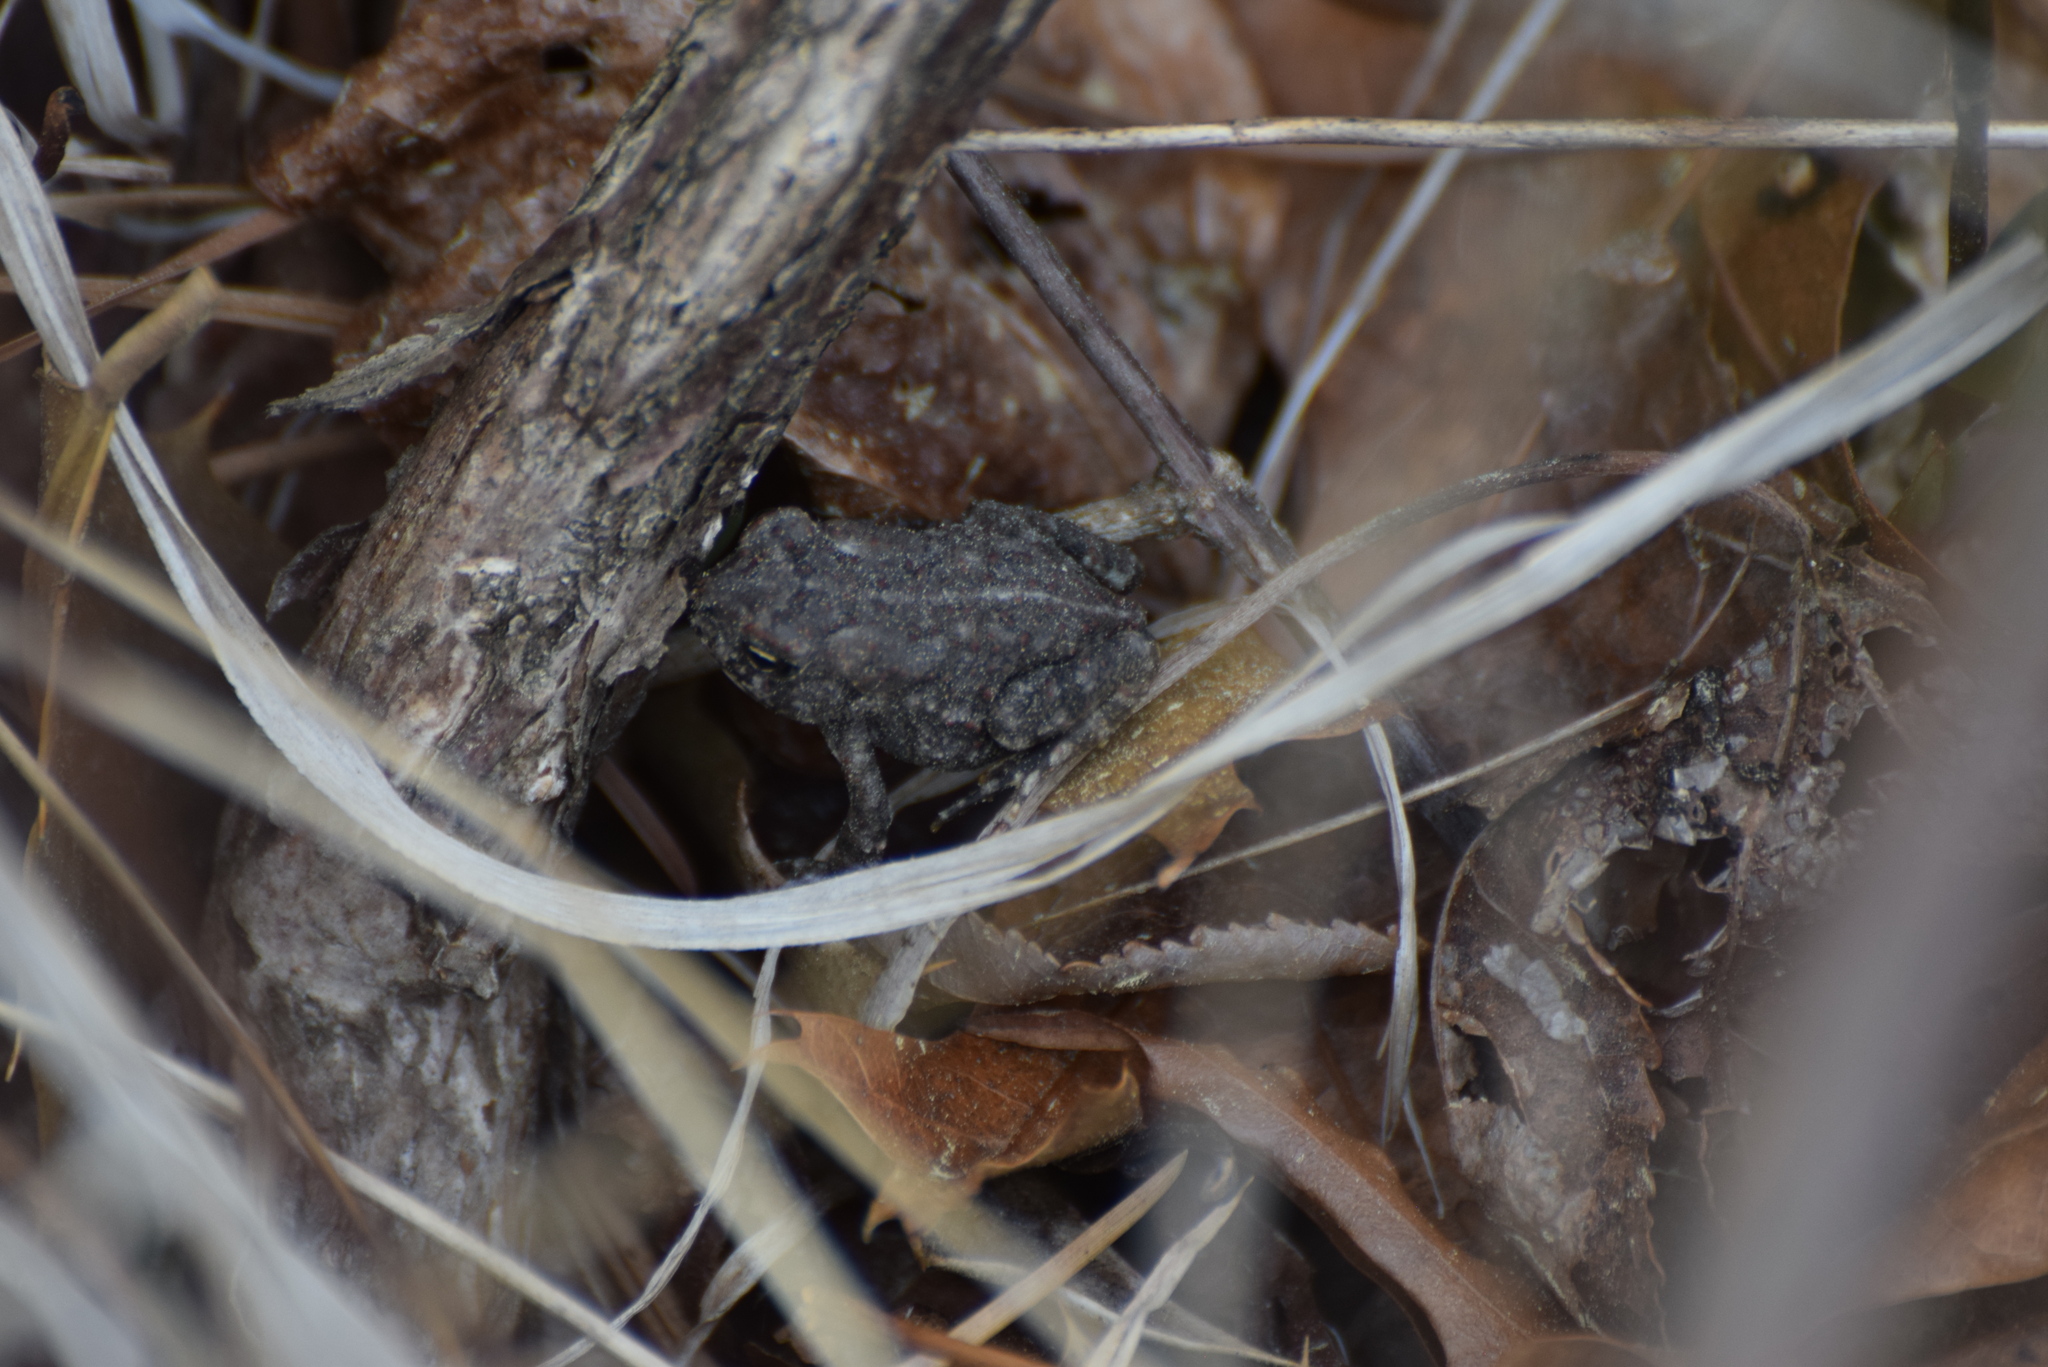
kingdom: Animalia
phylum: Chordata
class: Amphibia
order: Anura
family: Bufonidae
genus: Anaxyrus
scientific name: Anaxyrus fowleri
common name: Fowler's toad
